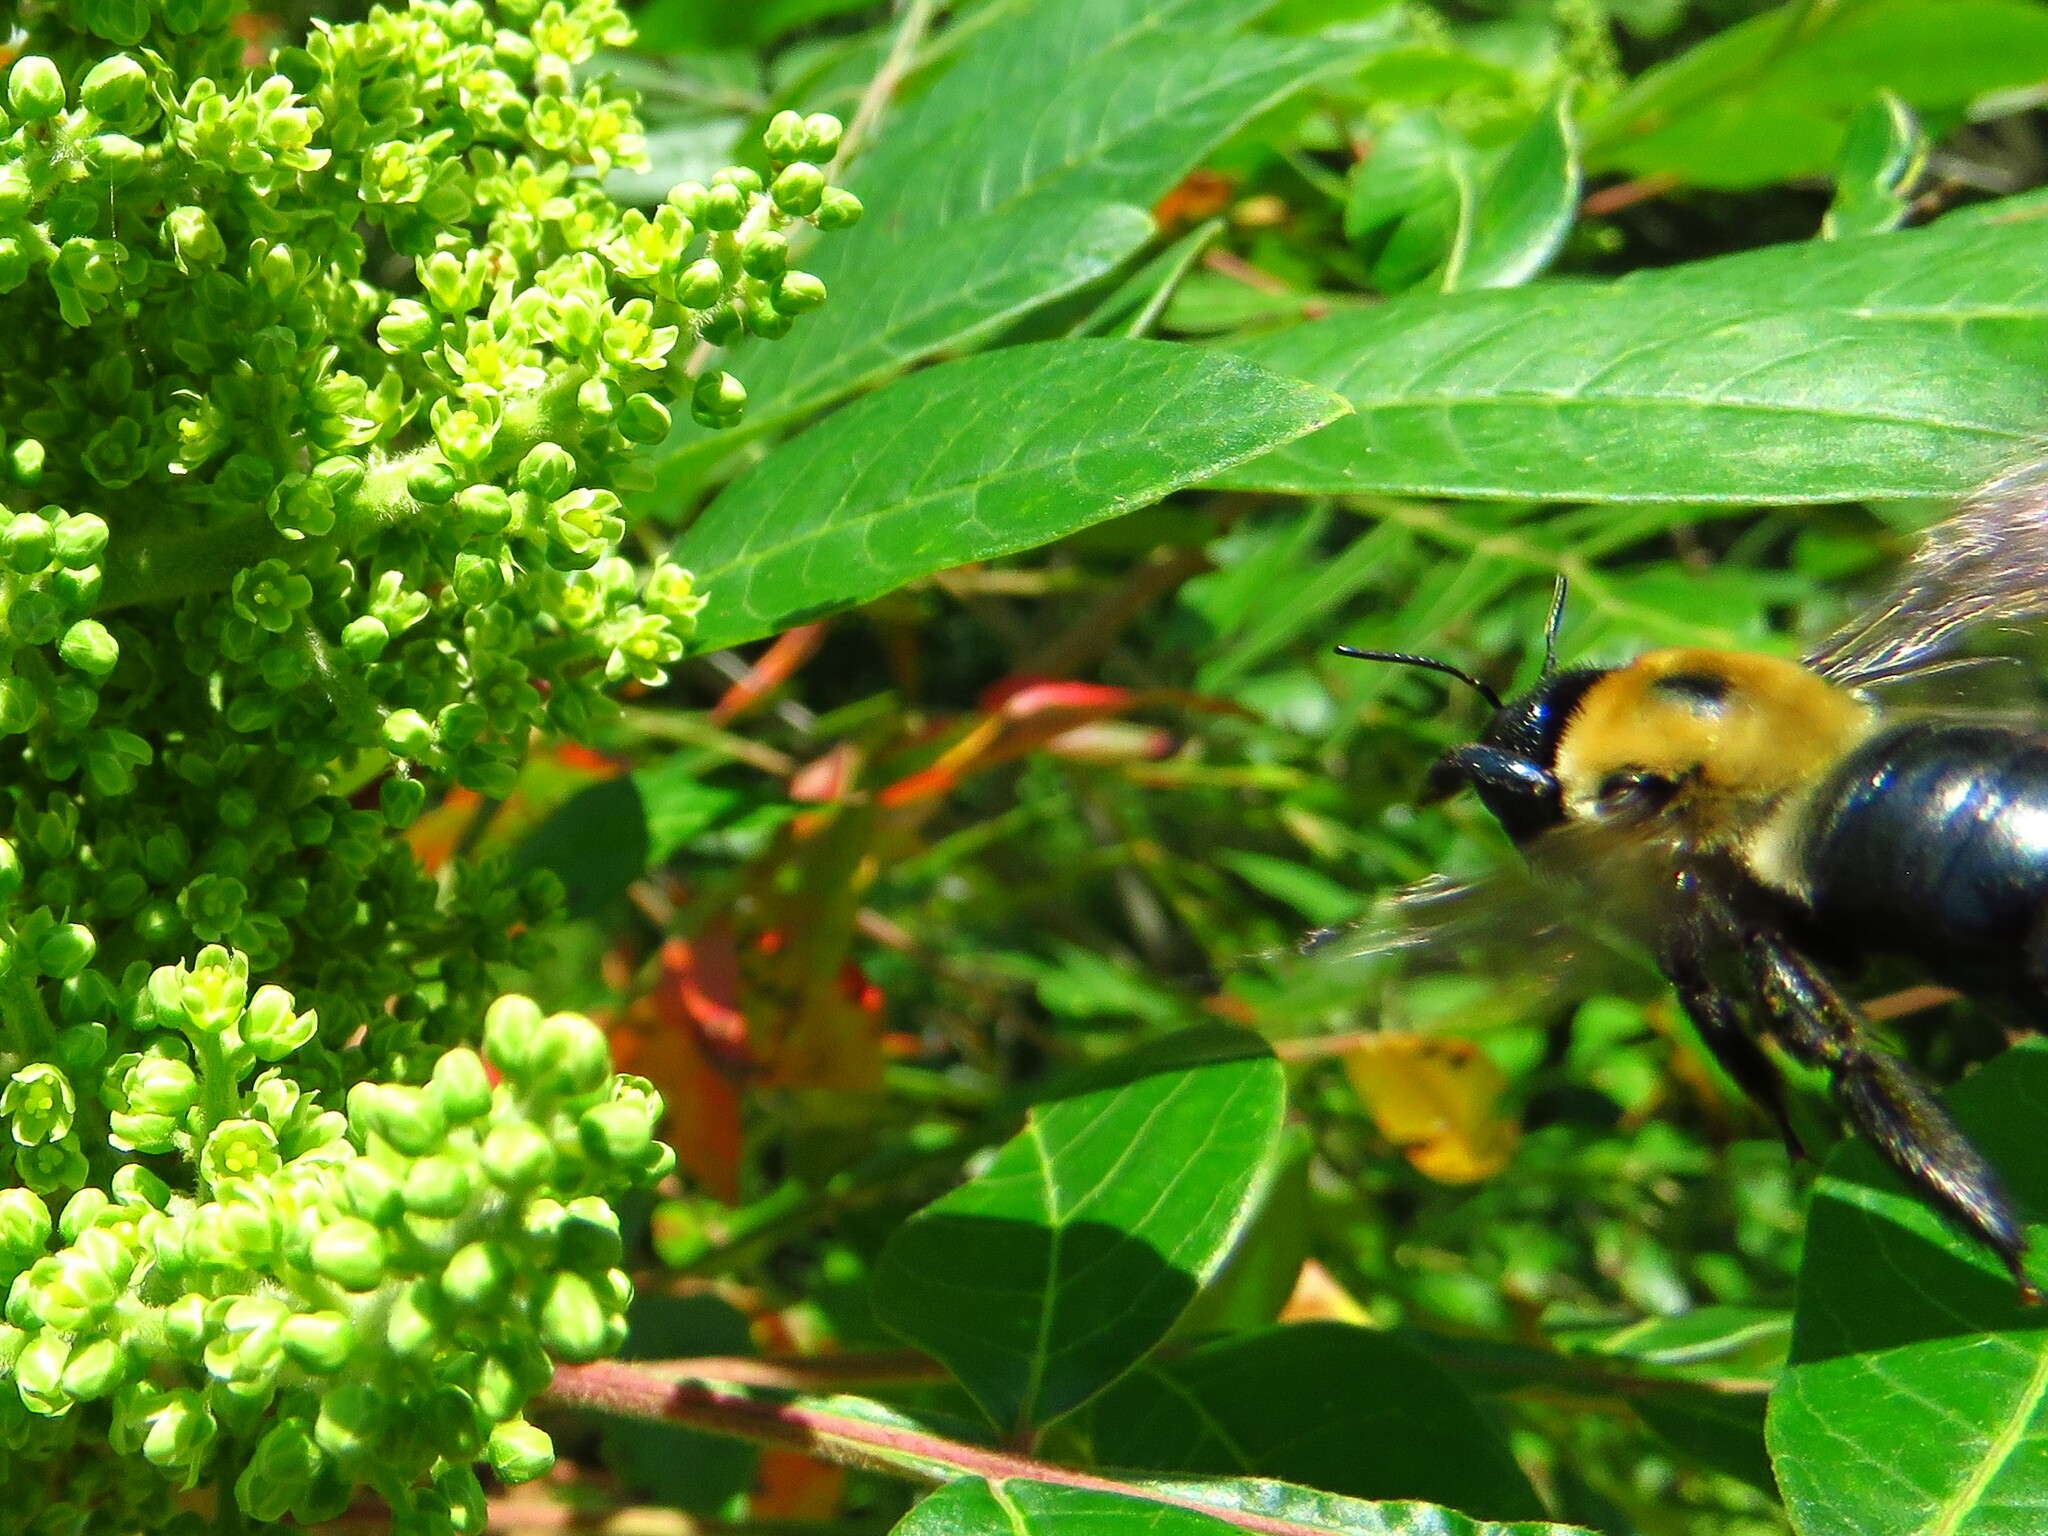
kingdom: Animalia
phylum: Arthropoda
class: Insecta
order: Hymenoptera
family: Apidae
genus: Xylocopa
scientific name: Xylocopa virginica
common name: Carpenter bee
